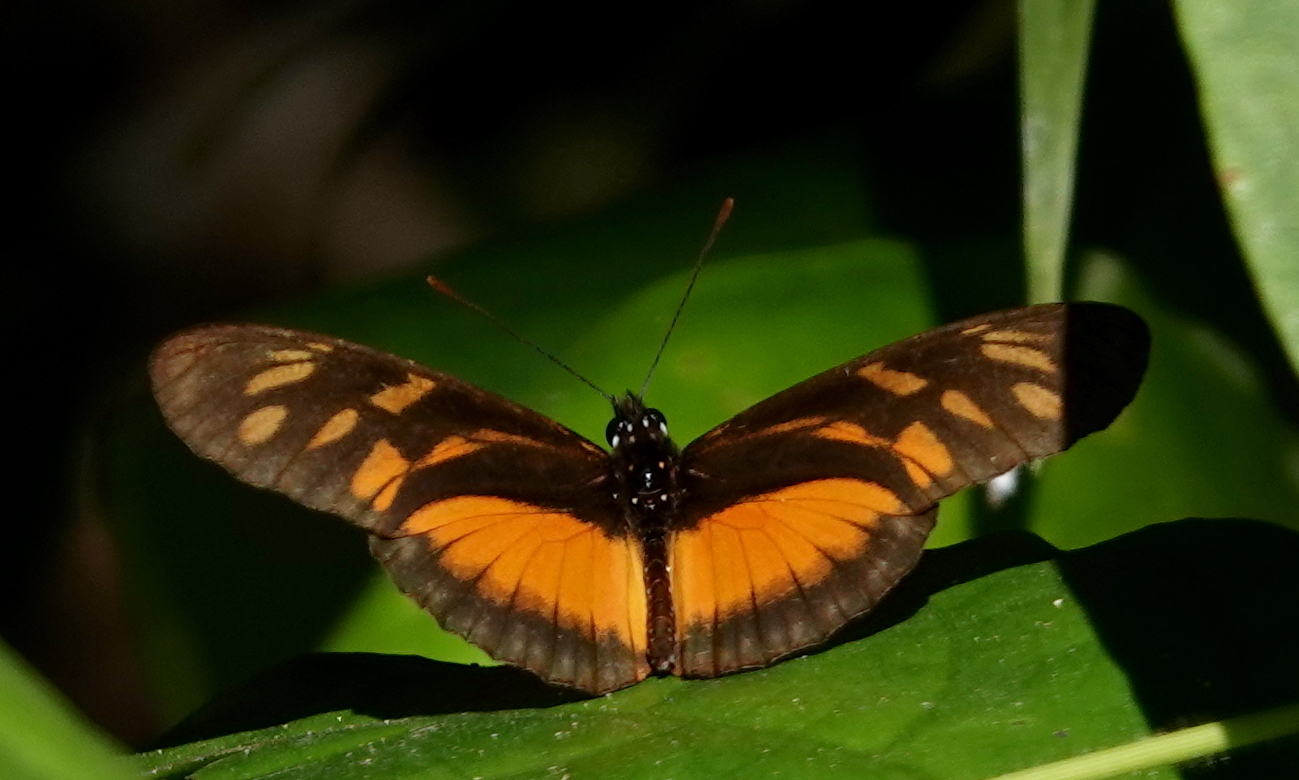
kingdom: Animalia
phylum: Arthropoda
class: Insecta
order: Lepidoptera
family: Nymphalidae
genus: Eueides
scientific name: Eueides procula
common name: Nonpassionate heliconian
